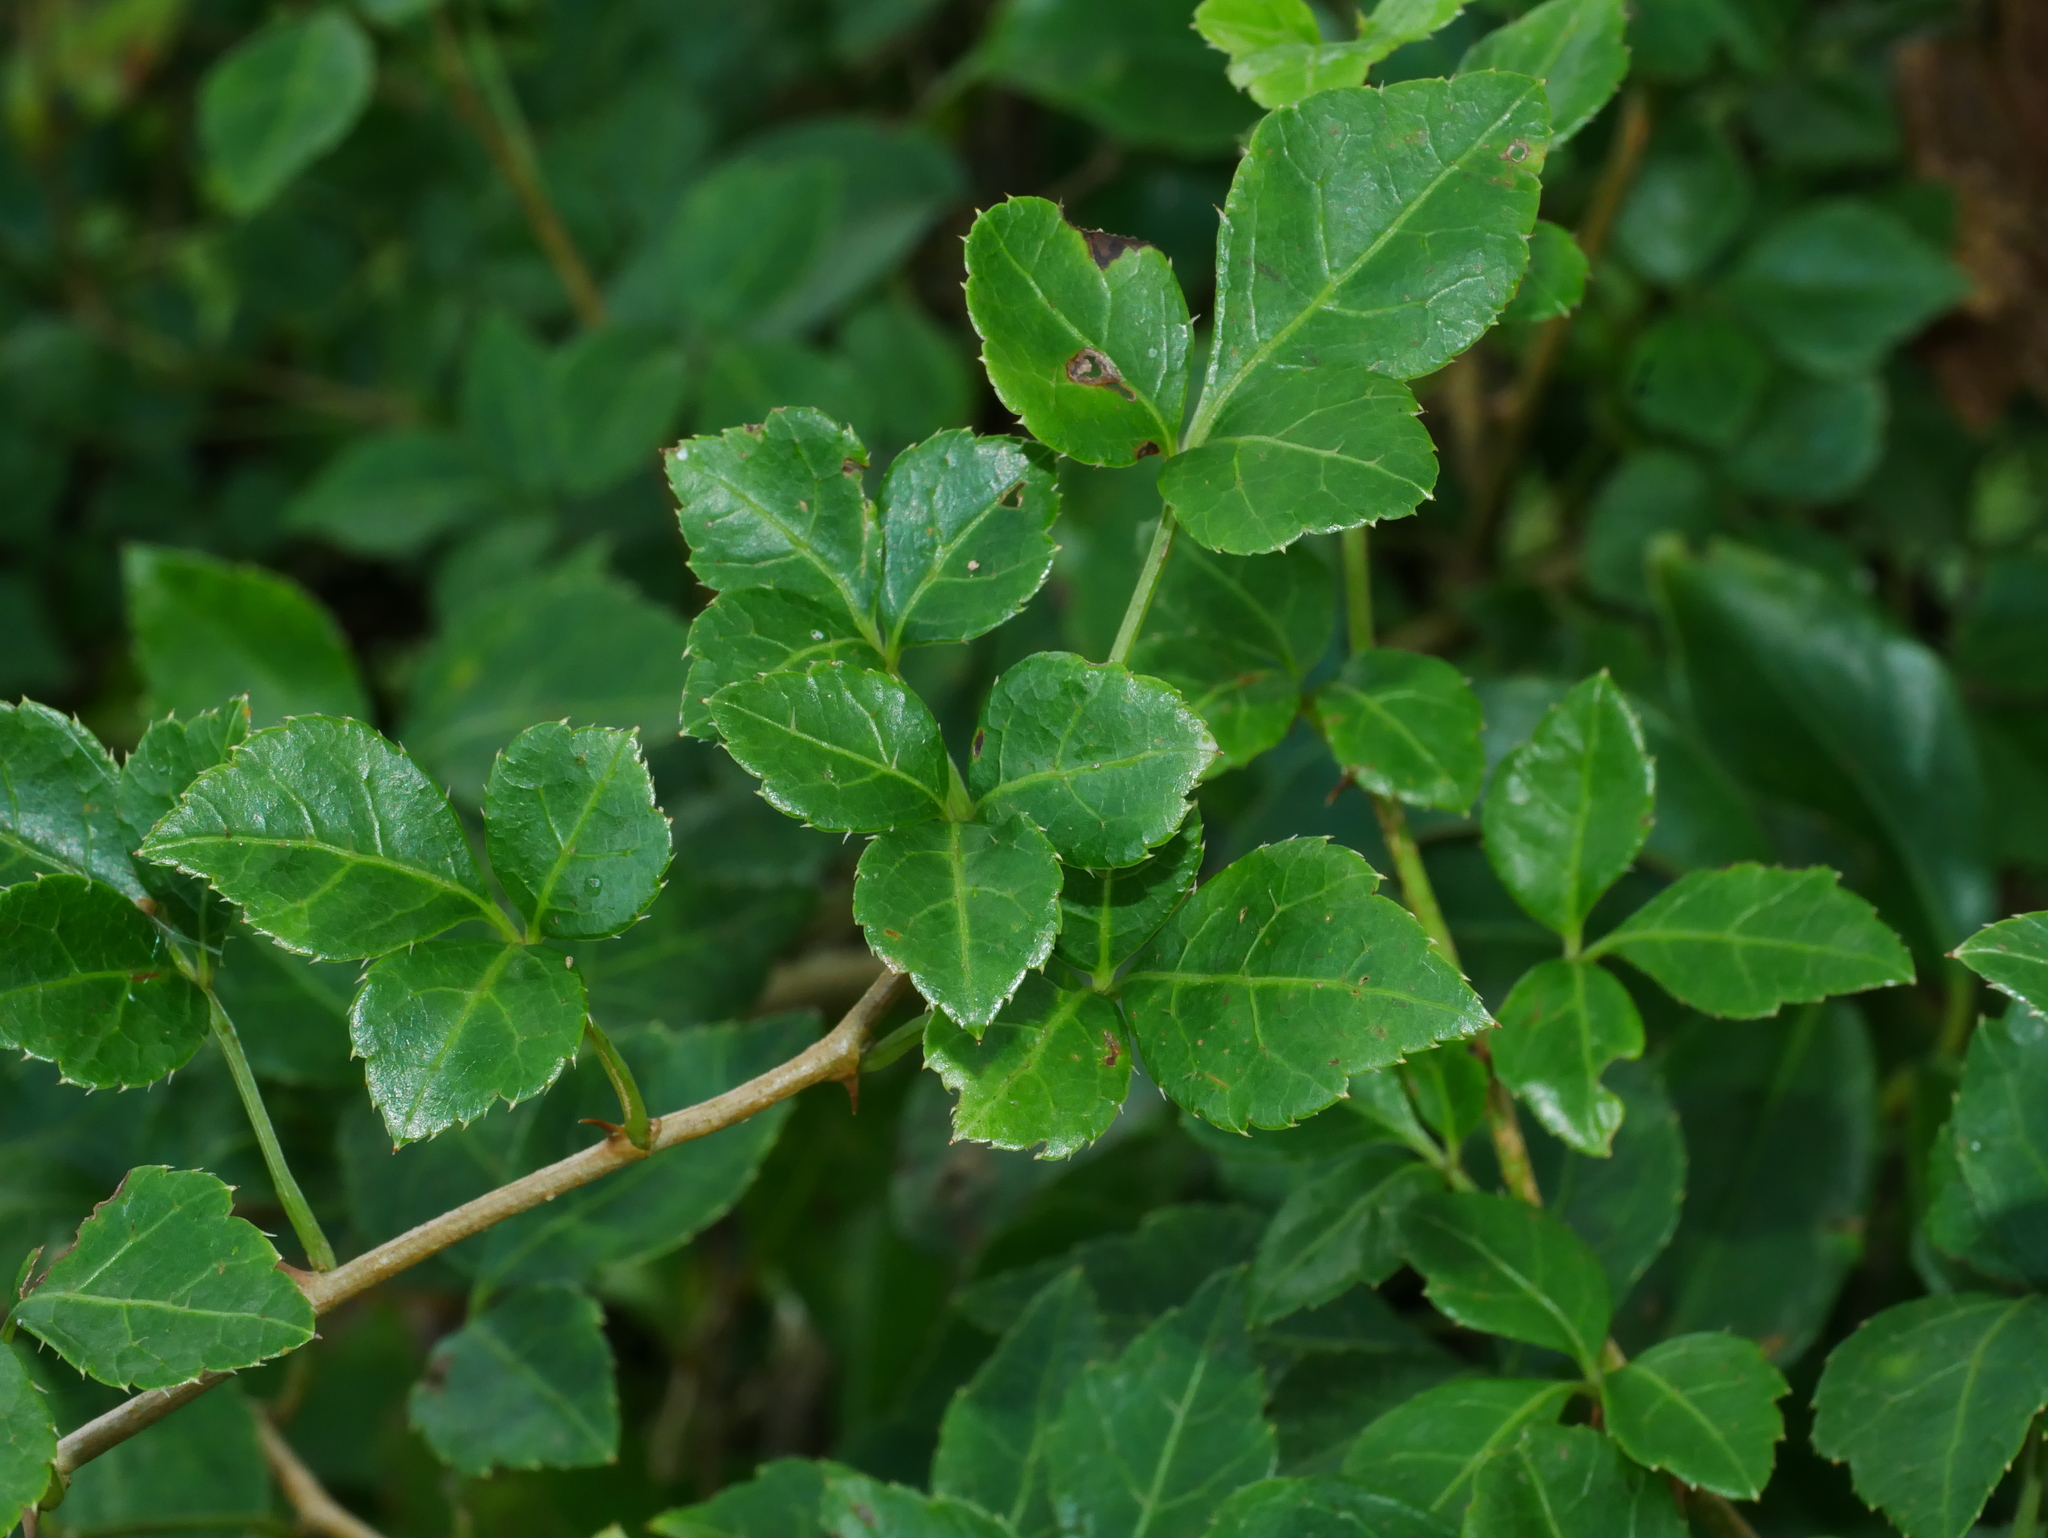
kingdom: Plantae
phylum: Tracheophyta
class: Magnoliopsida
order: Apiales
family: Araliaceae
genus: Eleutherococcus
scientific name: Eleutherococcus trifoliatus
